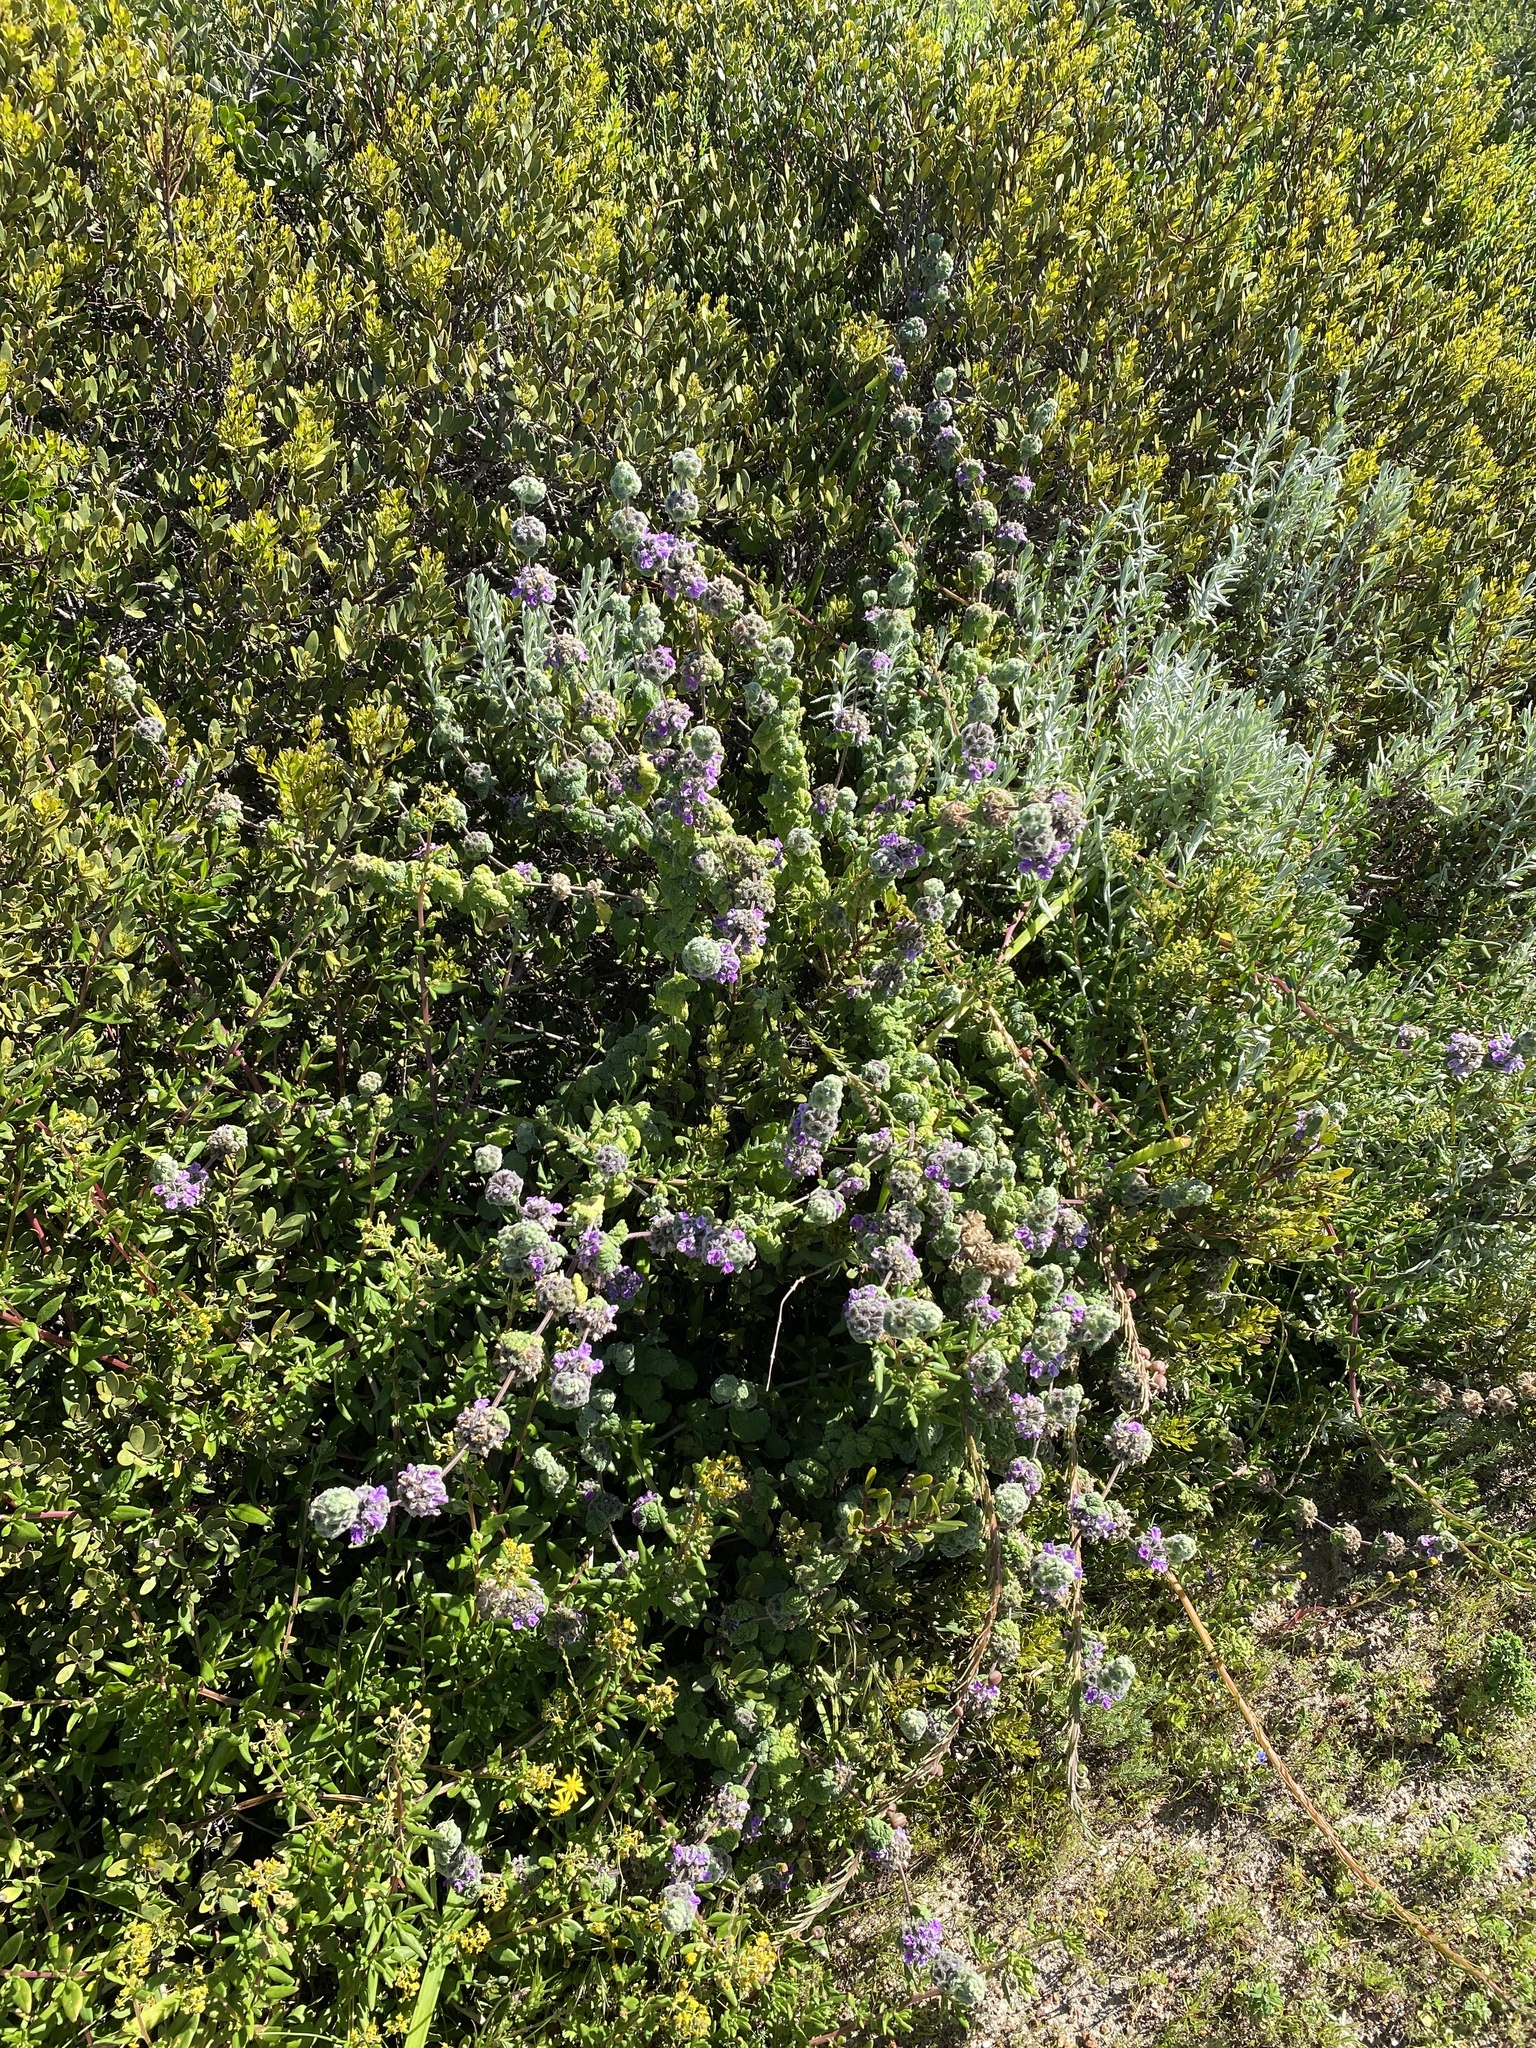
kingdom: Plantae
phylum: Tracheophyta
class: Magnoliopsida
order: Lamiales
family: Lamiaceae
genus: Pseudodictamnus
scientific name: Pseudodictamnus africanus
